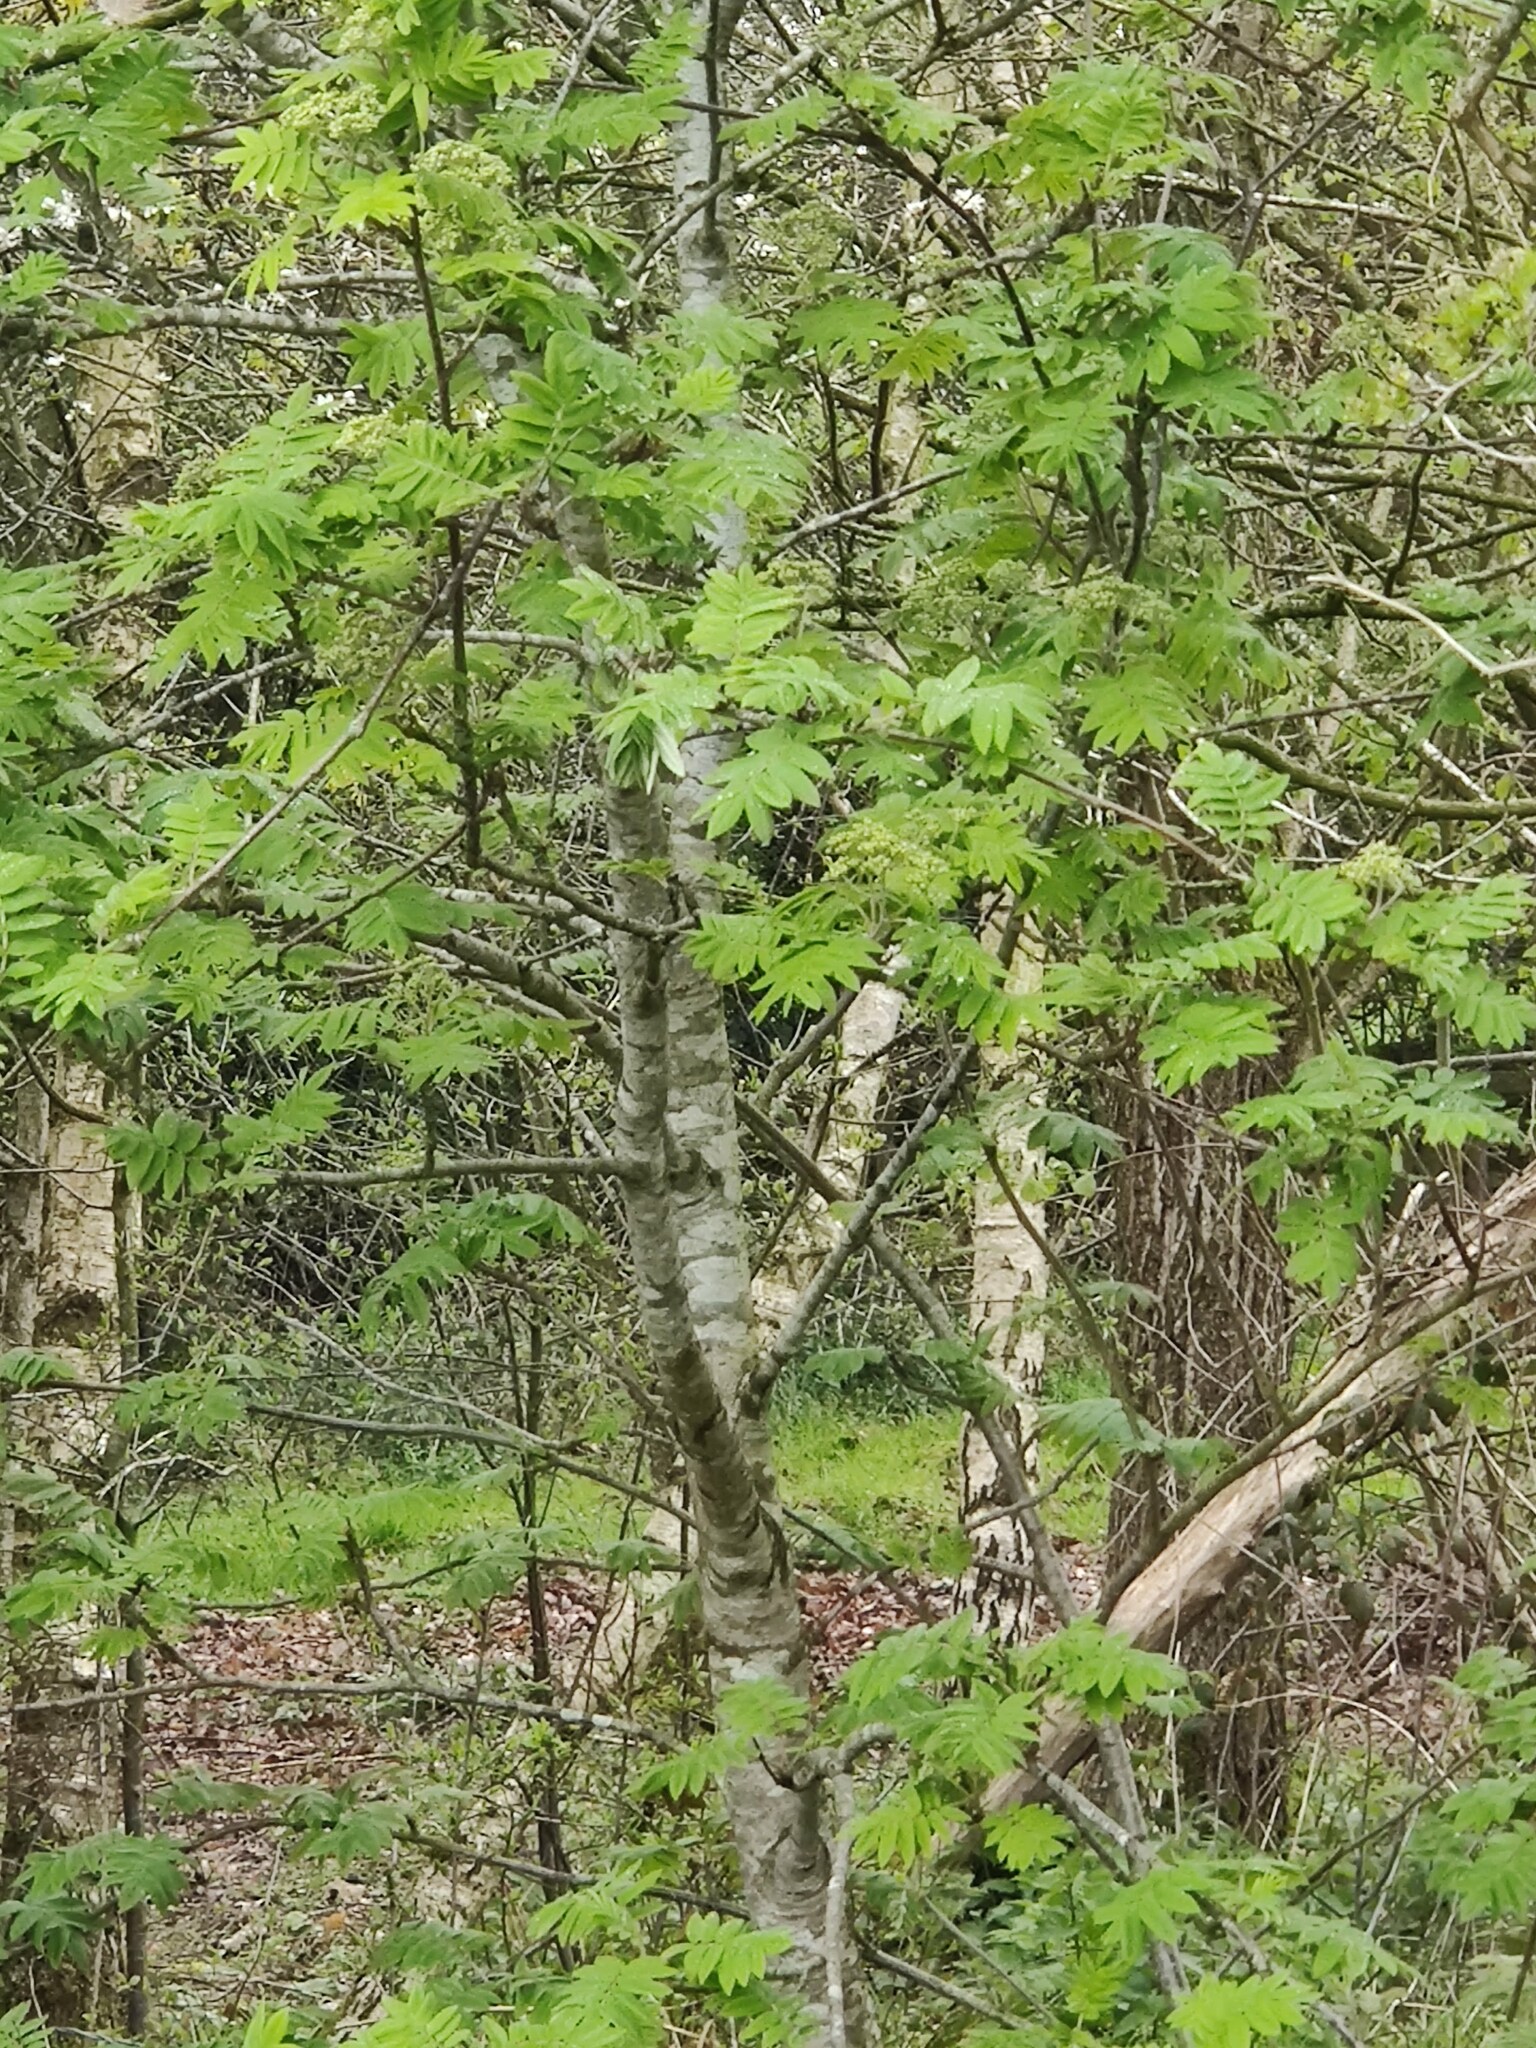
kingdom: Plantae
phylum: Tracheophyta
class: Magnoliopsida
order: Rosales
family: Rosaceae
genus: Sorbus
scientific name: Sorbus aucuparia
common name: Rowan
